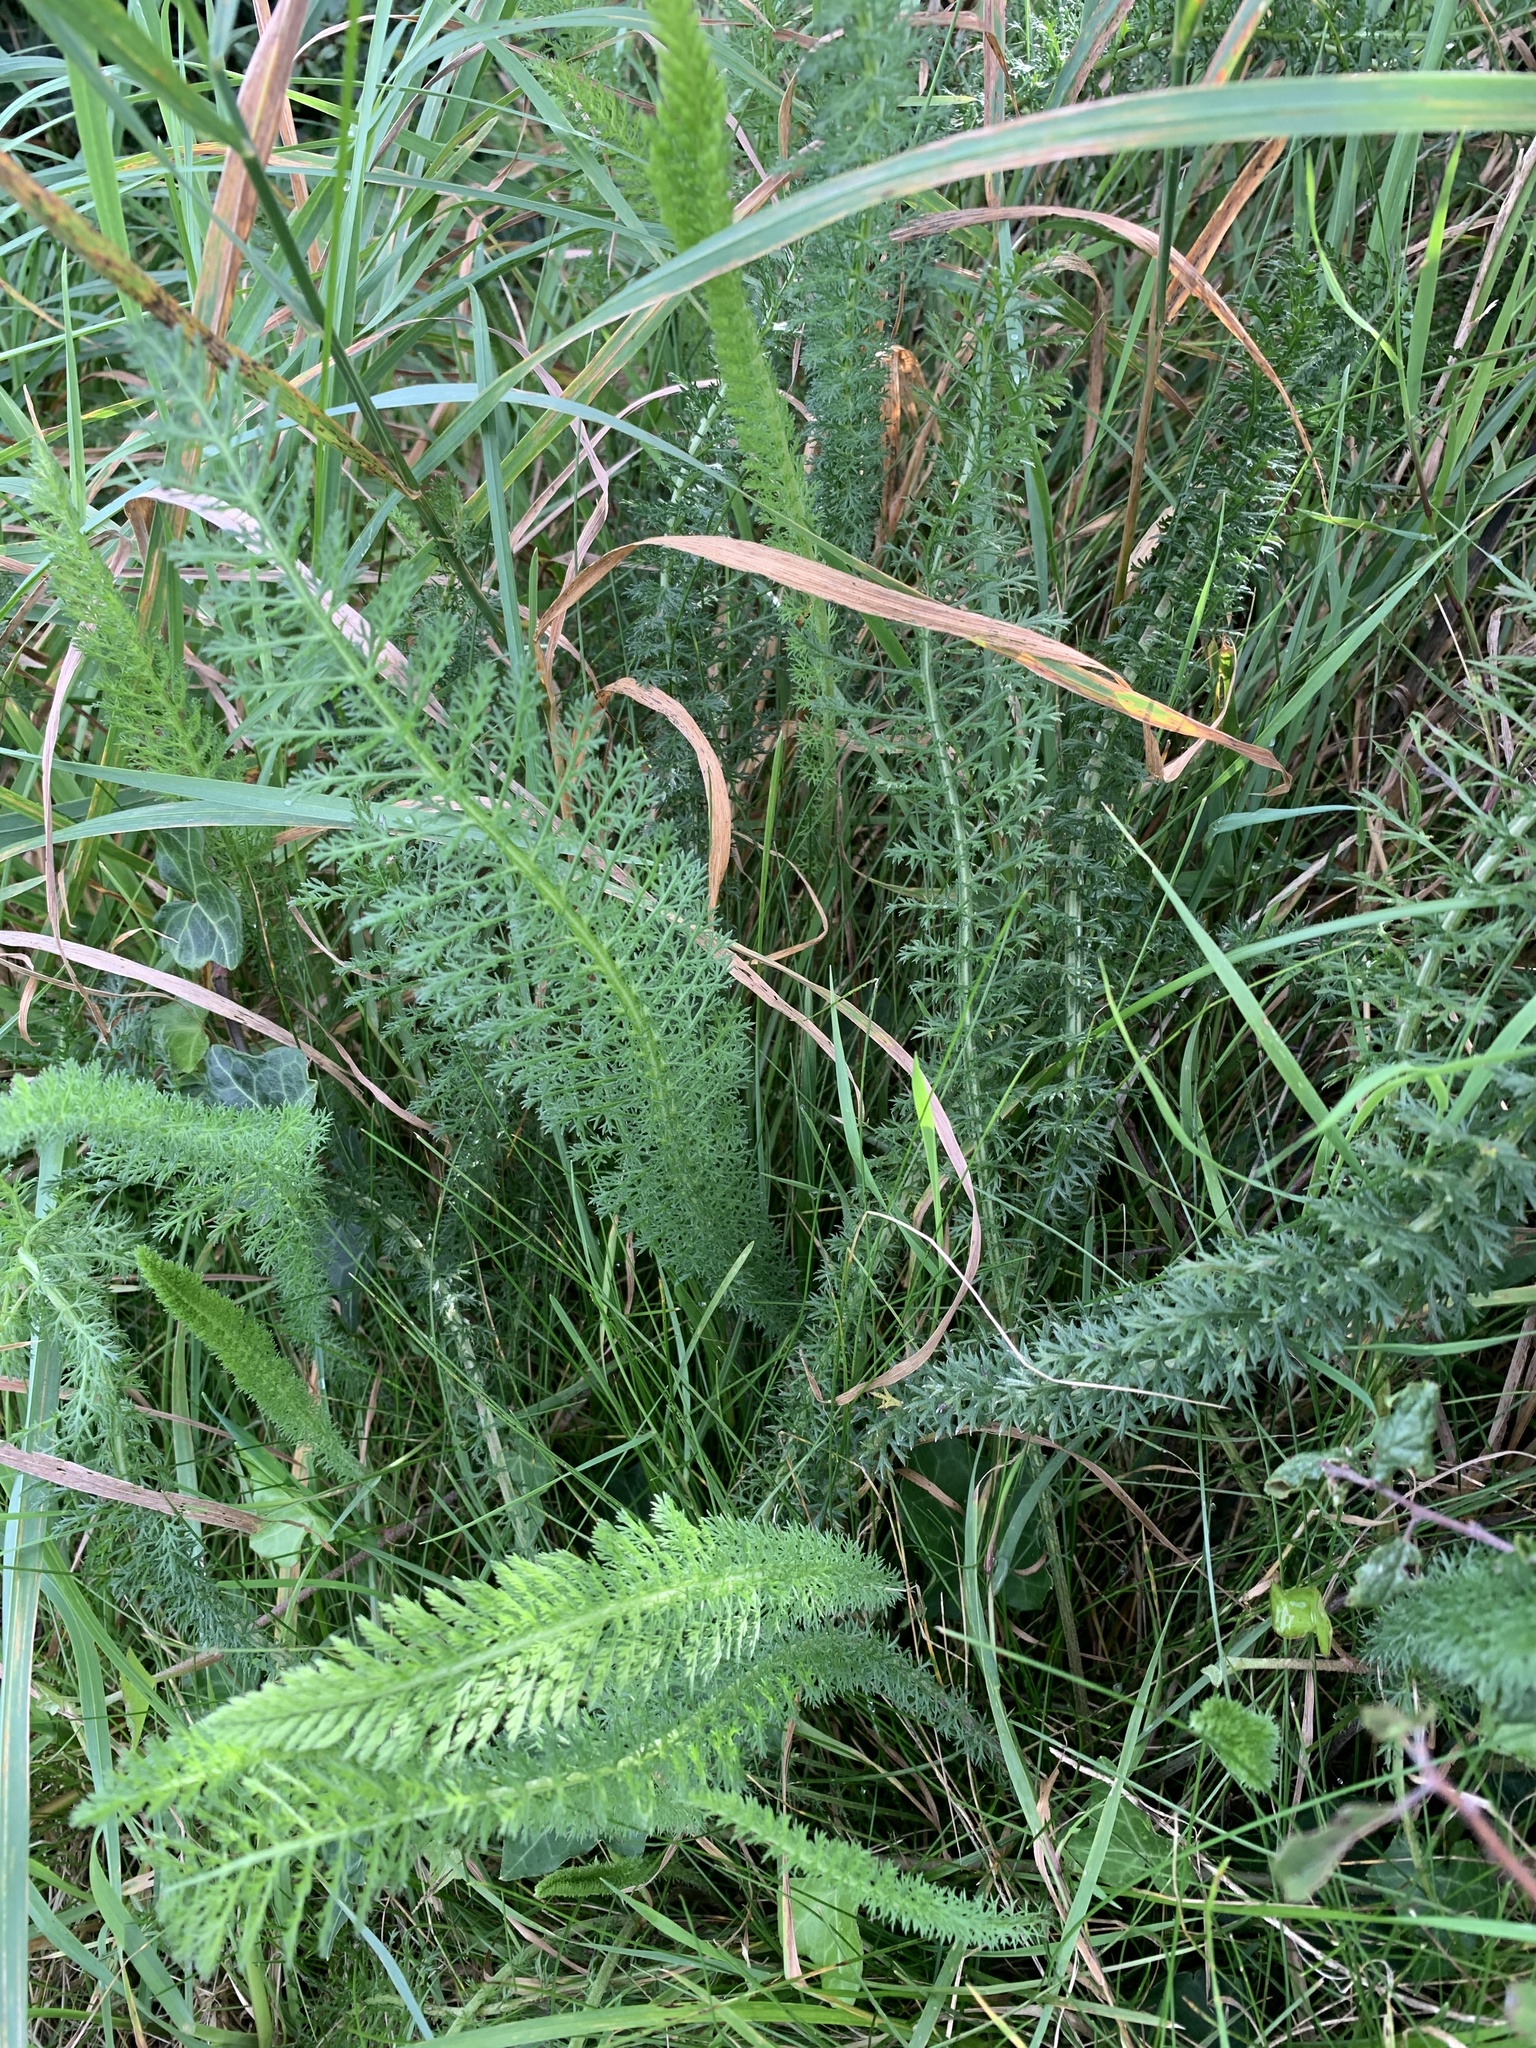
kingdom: Plantae
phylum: Tracheophyta
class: Magnoliopsida
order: Asterales
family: Asteraceae
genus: Achillea
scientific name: Achillea millefolium
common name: Yarrow
